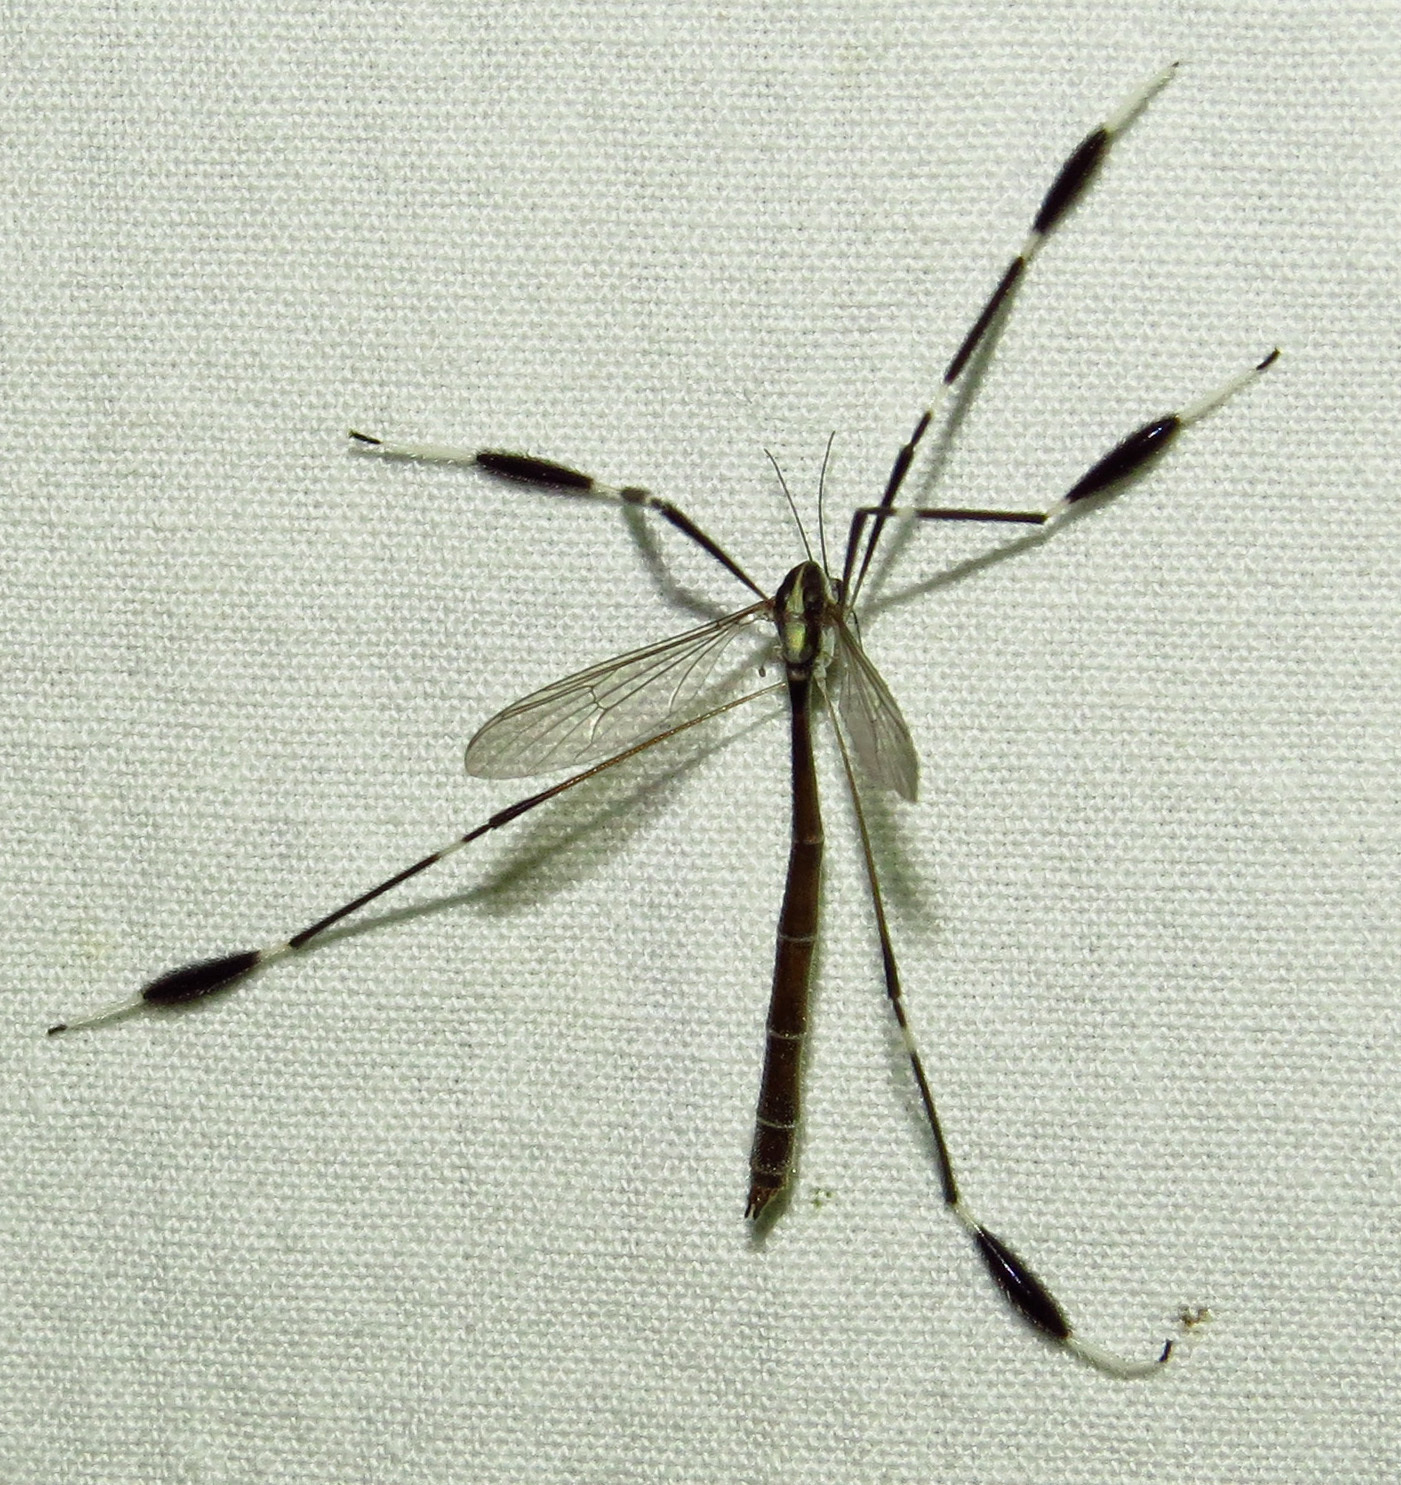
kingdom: Animalia
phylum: Arthropoda
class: Insecta
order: Diptera
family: Ptychopteridae
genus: Bittacomorpha
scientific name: Bittacomorpha clavipes
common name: Eastern phantom crane fly
